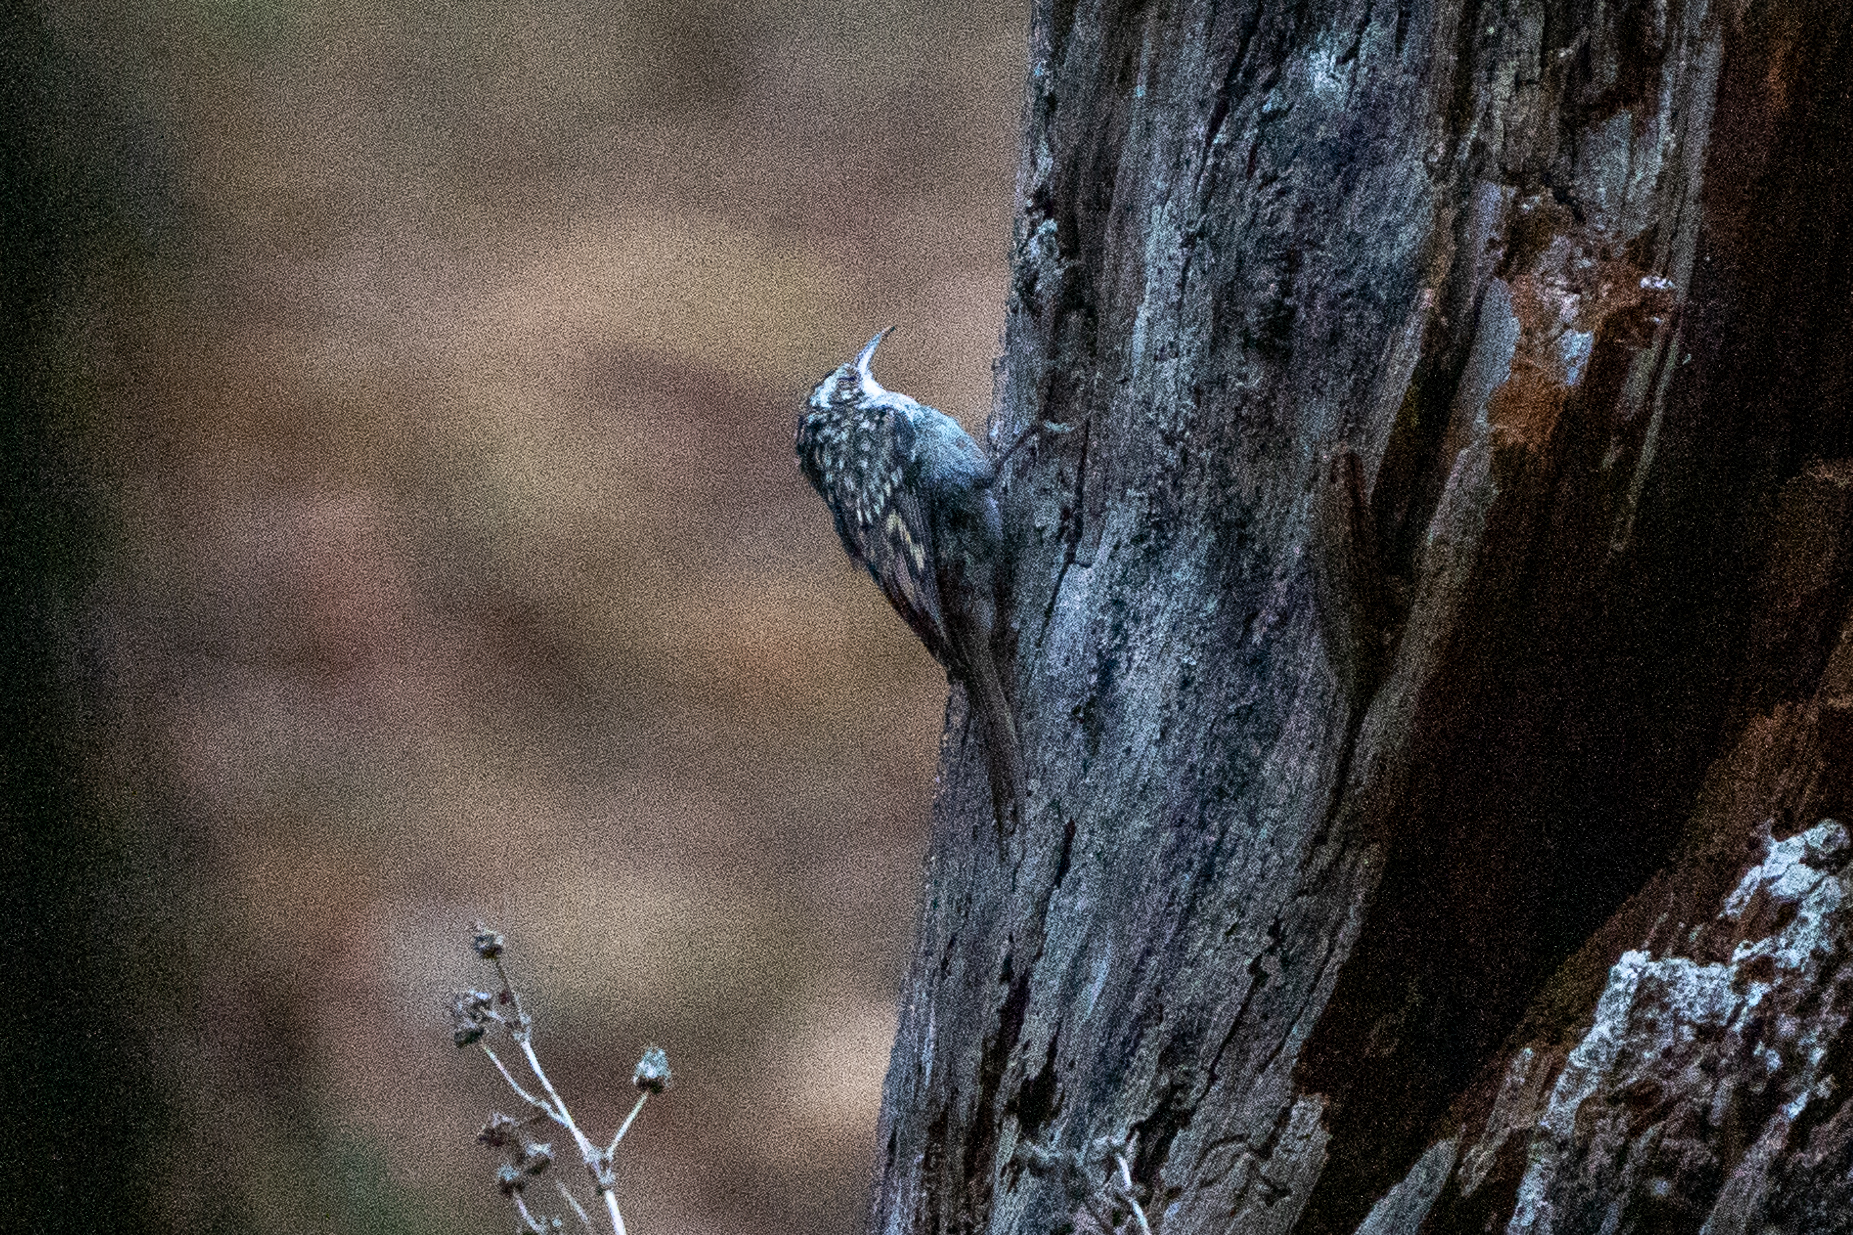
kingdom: Animalia
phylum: Chordata
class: Aves
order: Passeriformes
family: Certhiidae
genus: Certhia
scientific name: Certhia familiaris
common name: Eurasian treecreeper
